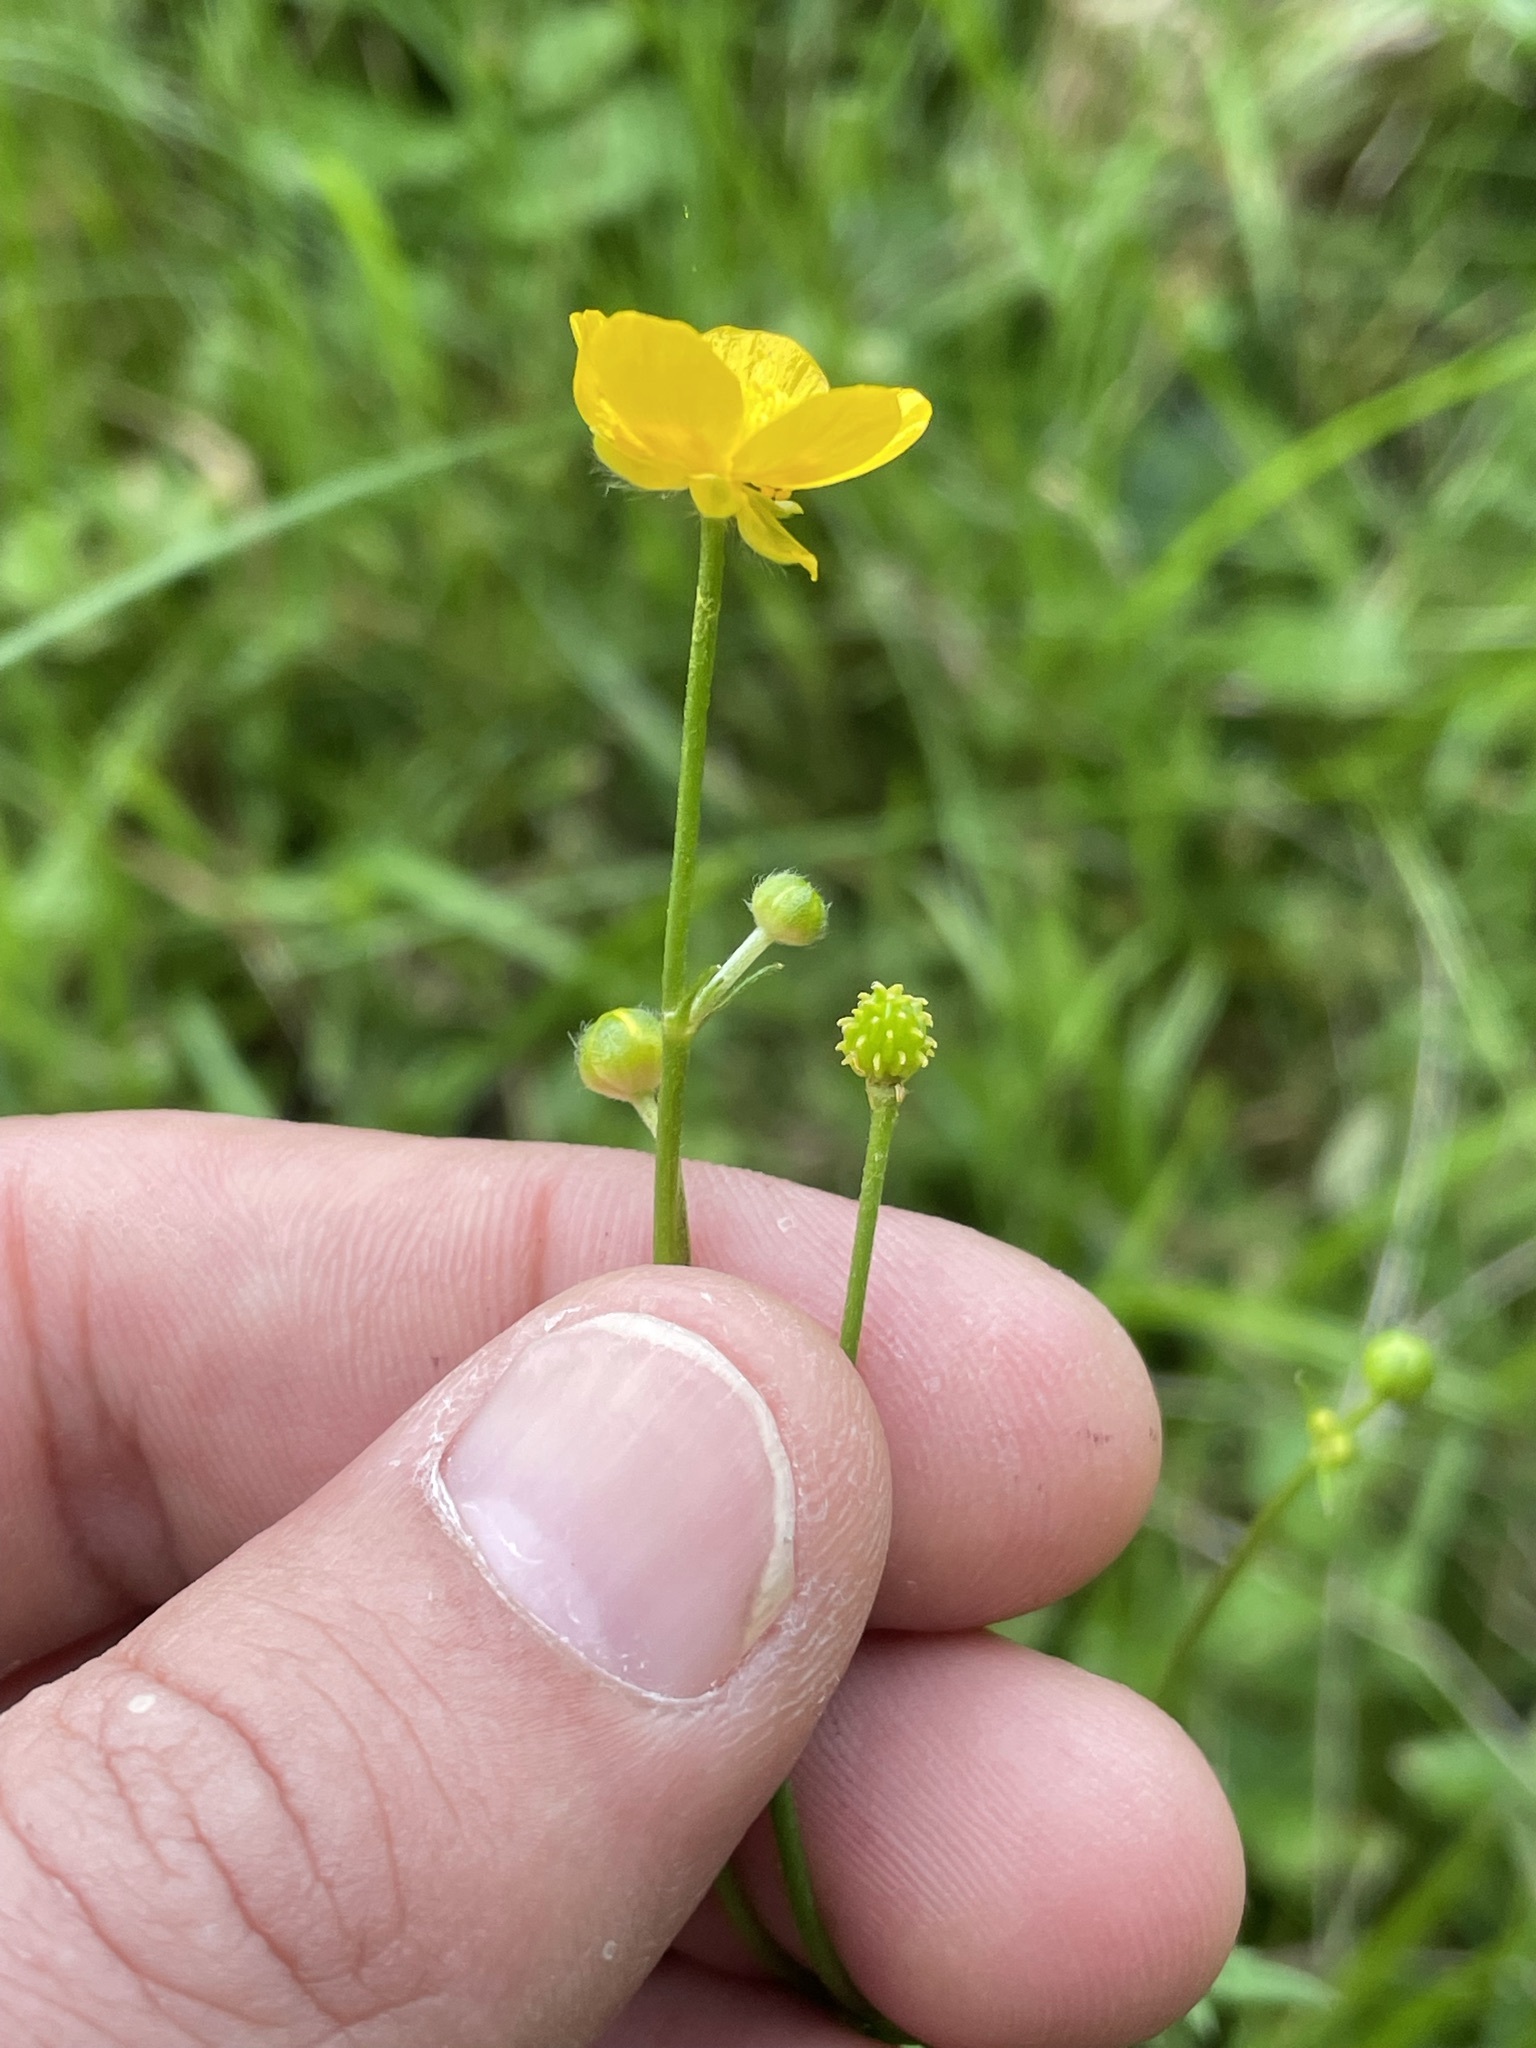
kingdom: Plantae
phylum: Tracheophyta
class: Magnoliopsida
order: Ranunculales
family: Ranunculaceae
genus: Ranunculus
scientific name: Ranunculus acris
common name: Meadow buttercup
